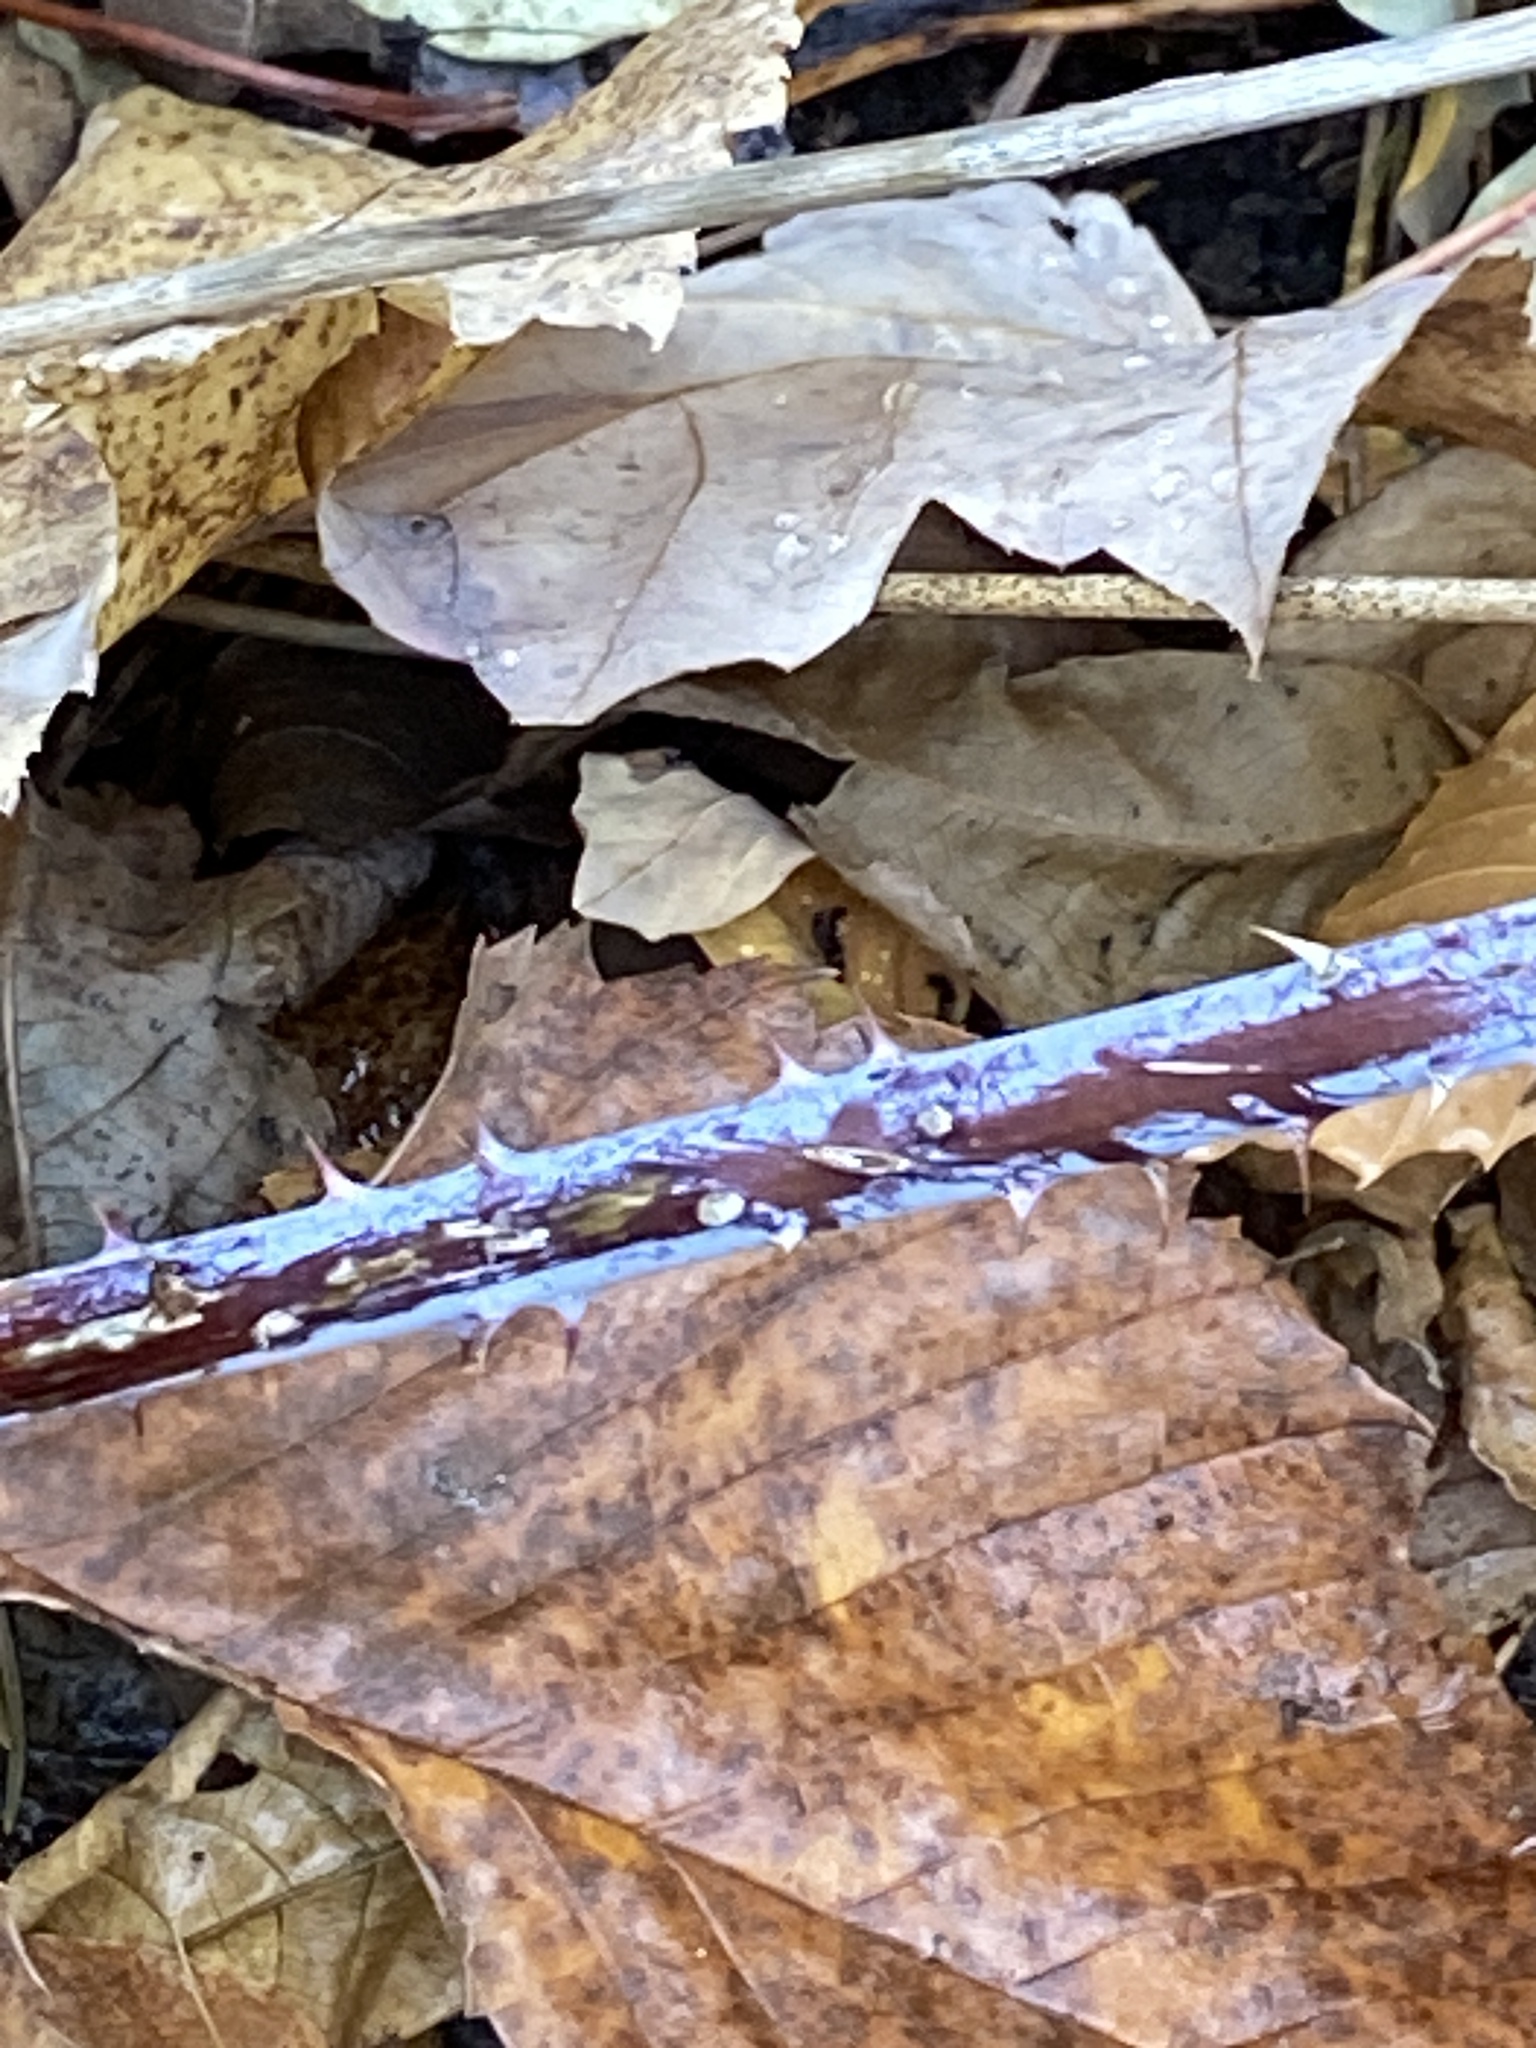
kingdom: Plantae
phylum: Tracheophyta
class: Magnoliopsida
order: Rosales
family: Rosaceae
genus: Rubus
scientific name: Rubus occidentalis
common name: Black raspberry
